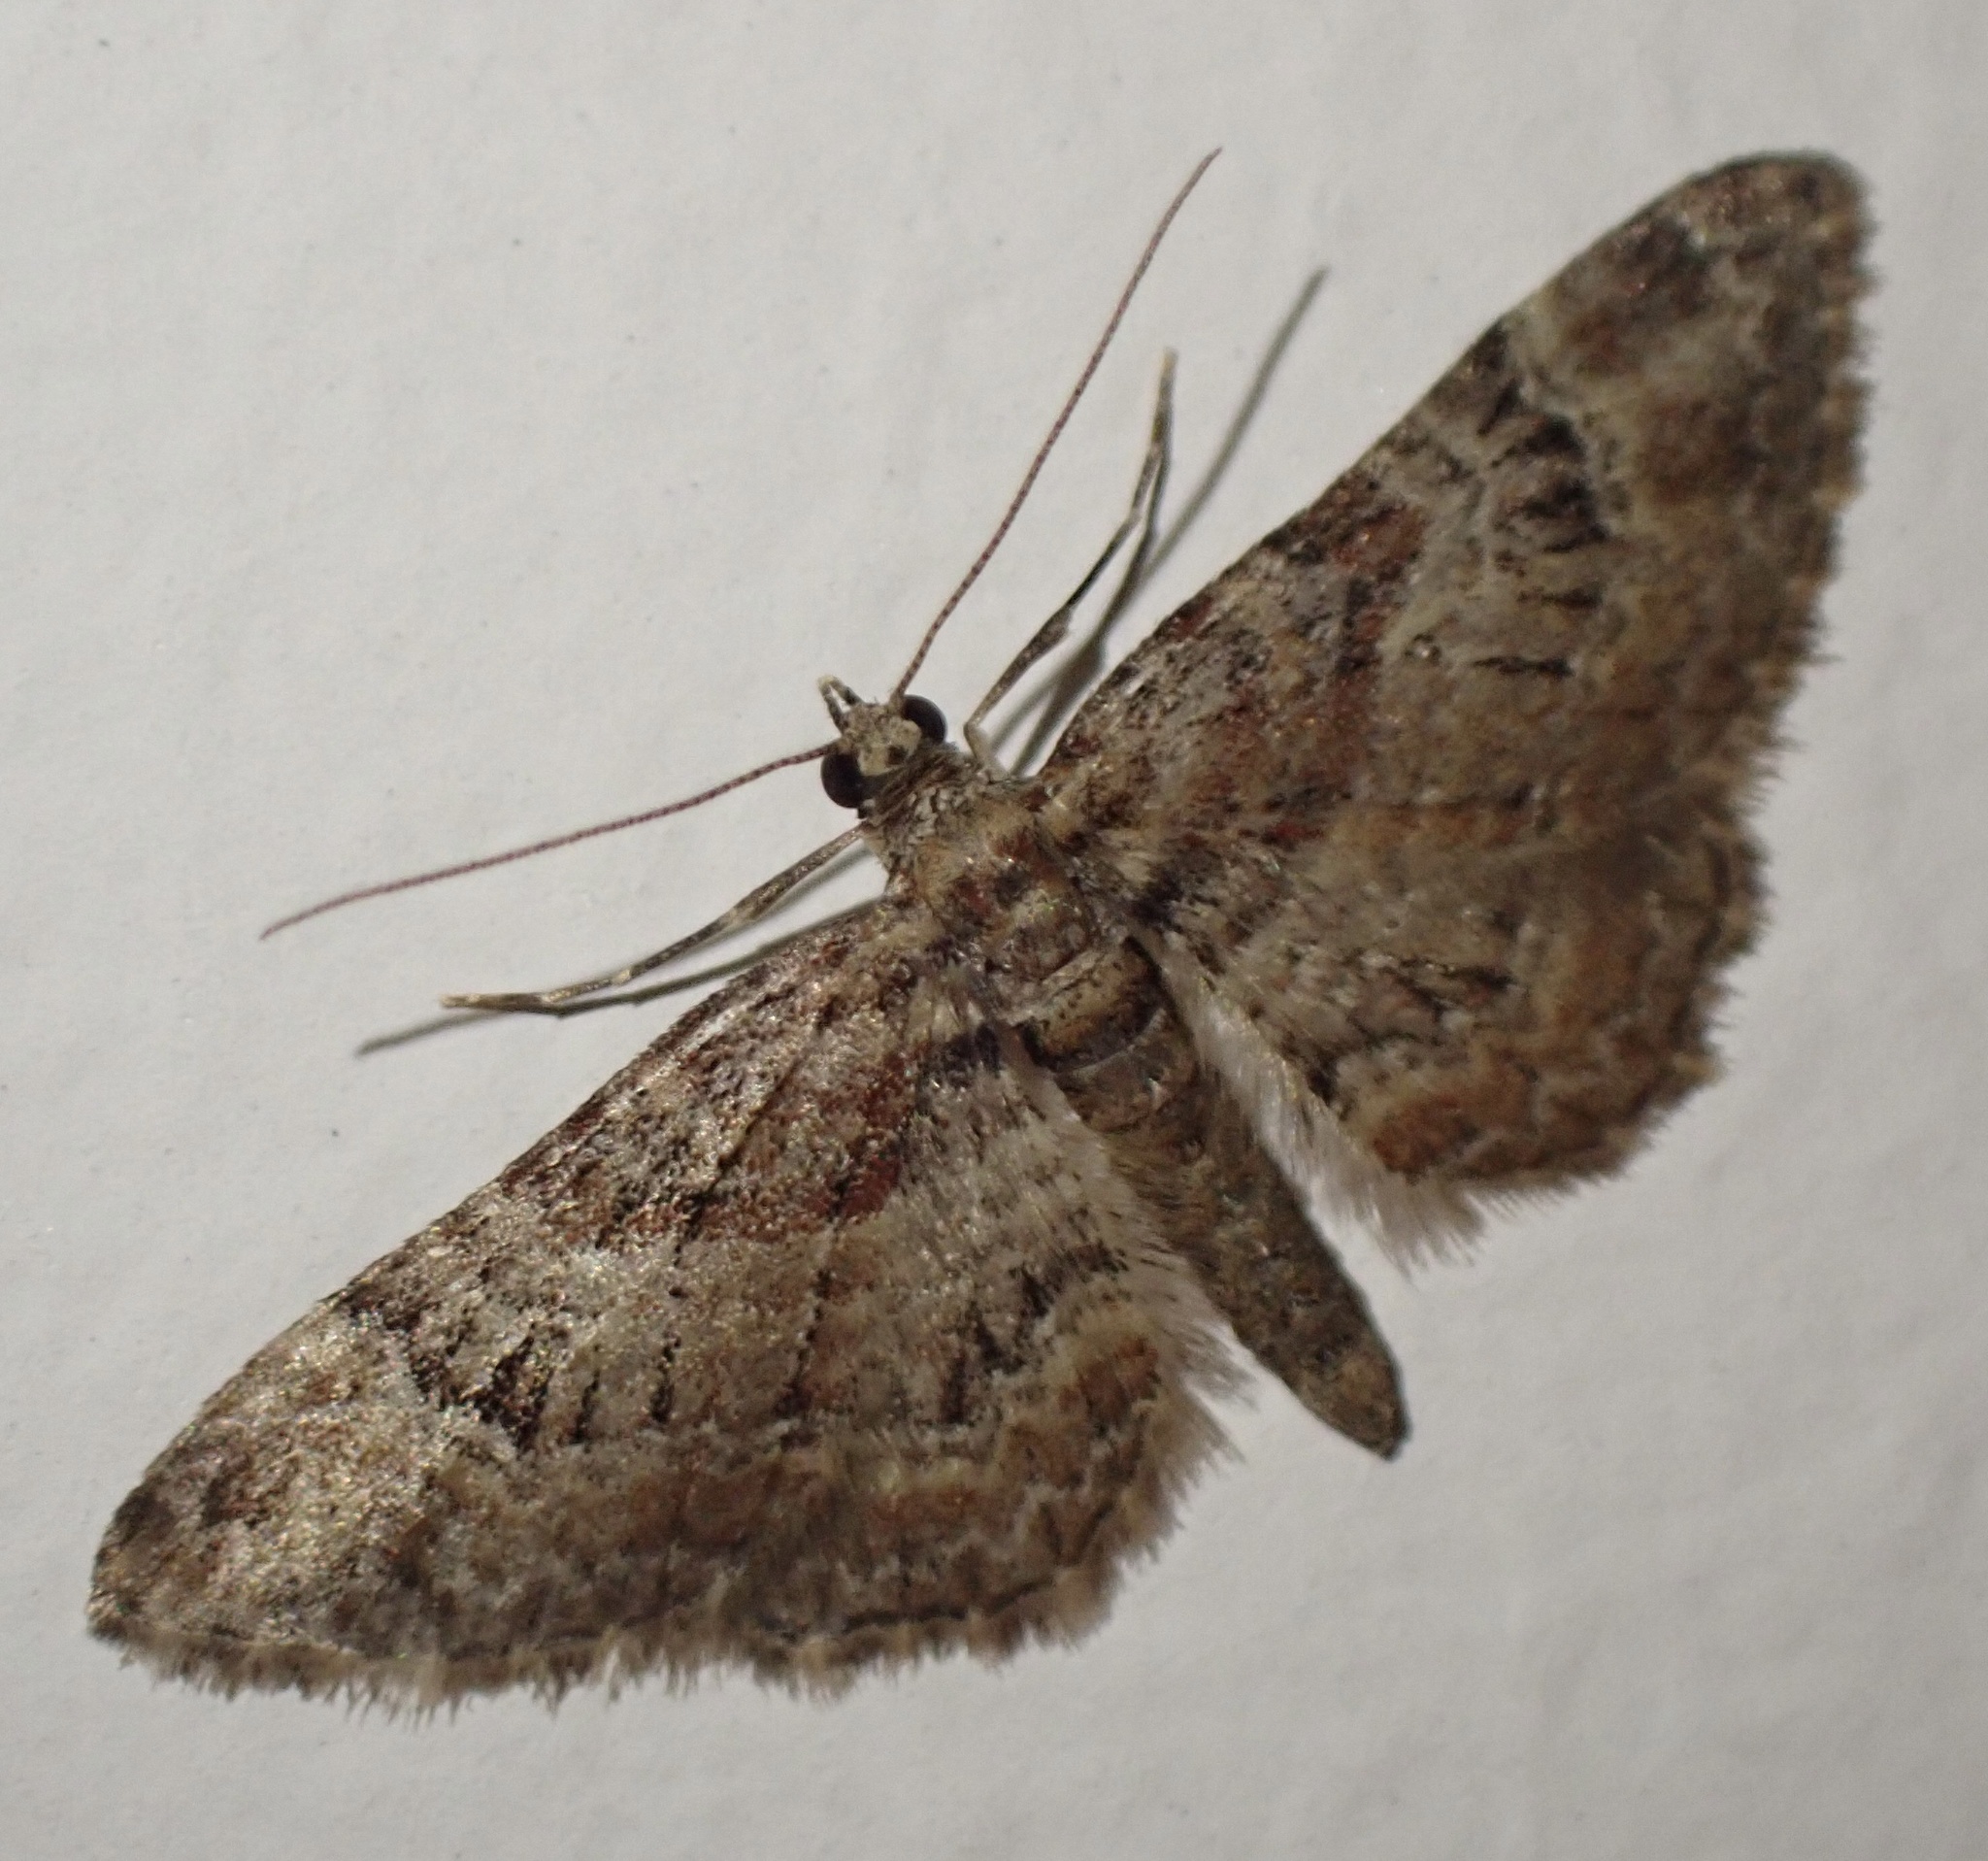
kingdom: Animalia
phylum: Arthropoda
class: Insecta
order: Lepidoptera
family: Geometridae
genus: Gymnoscelis
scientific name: Gymnoscelis rufifasciata
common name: Double-striped pug
